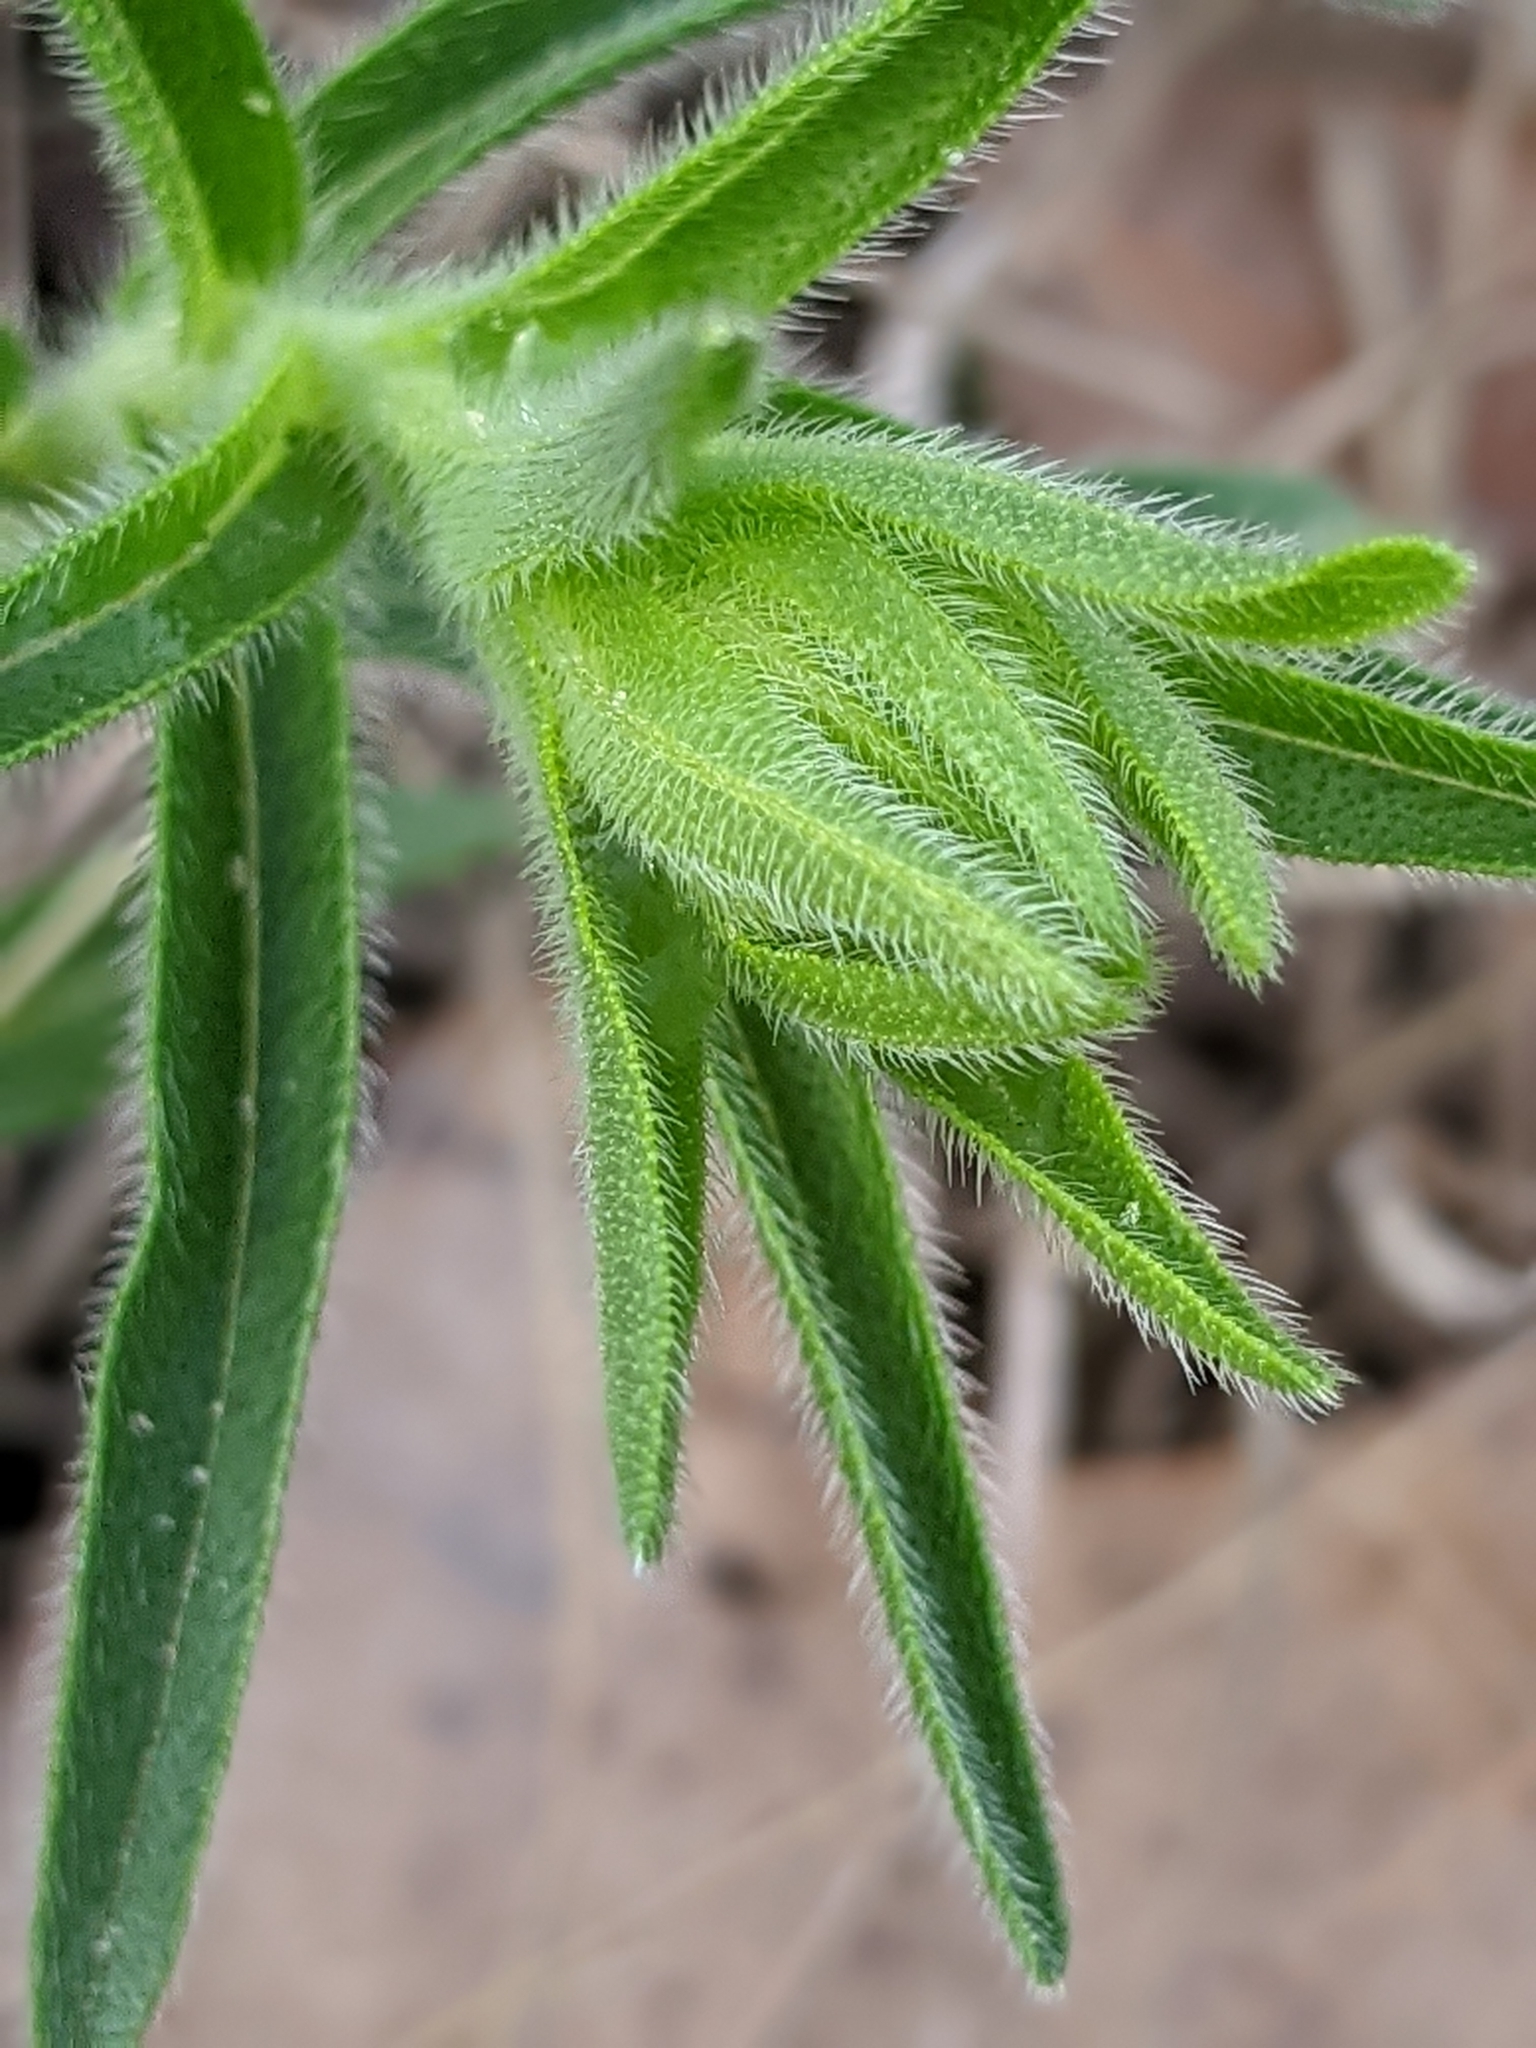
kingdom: Plantae
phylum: Tracheophyta
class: Magnoliopsida
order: Boraginales
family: Boraginaceae
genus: Lithospermum
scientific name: Lithospermum caroliniense
